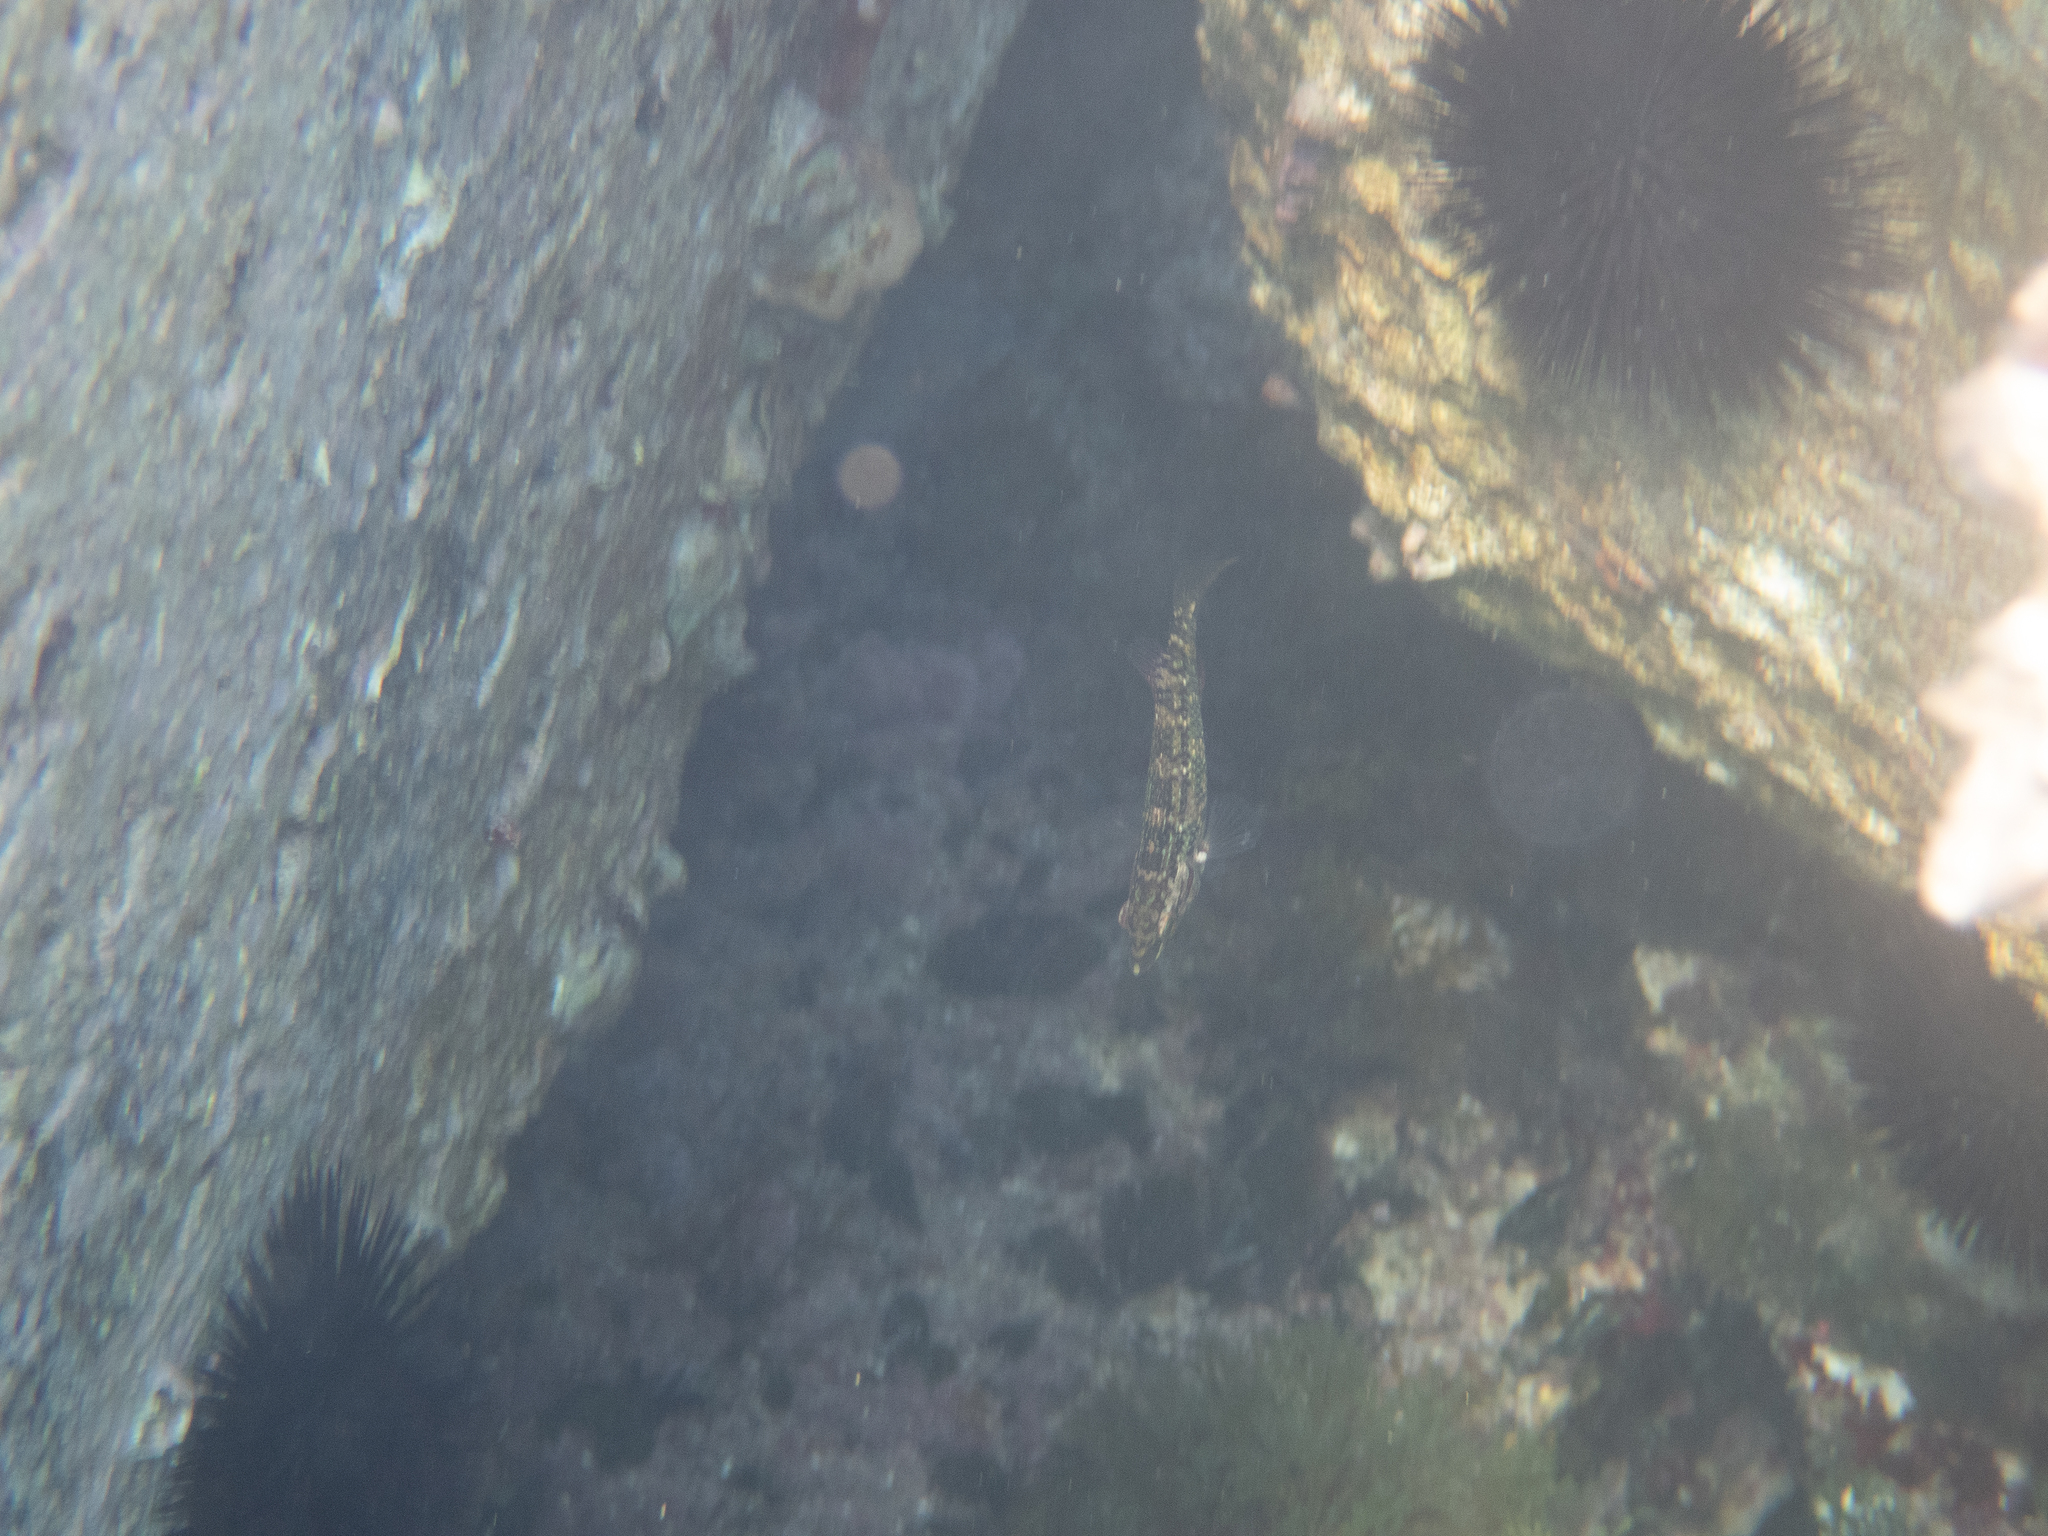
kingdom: Animalia
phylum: Chordata
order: Perciformes
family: Labridae
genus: Symphodus
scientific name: Symphodus roissali
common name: Five-spotted wrasse
